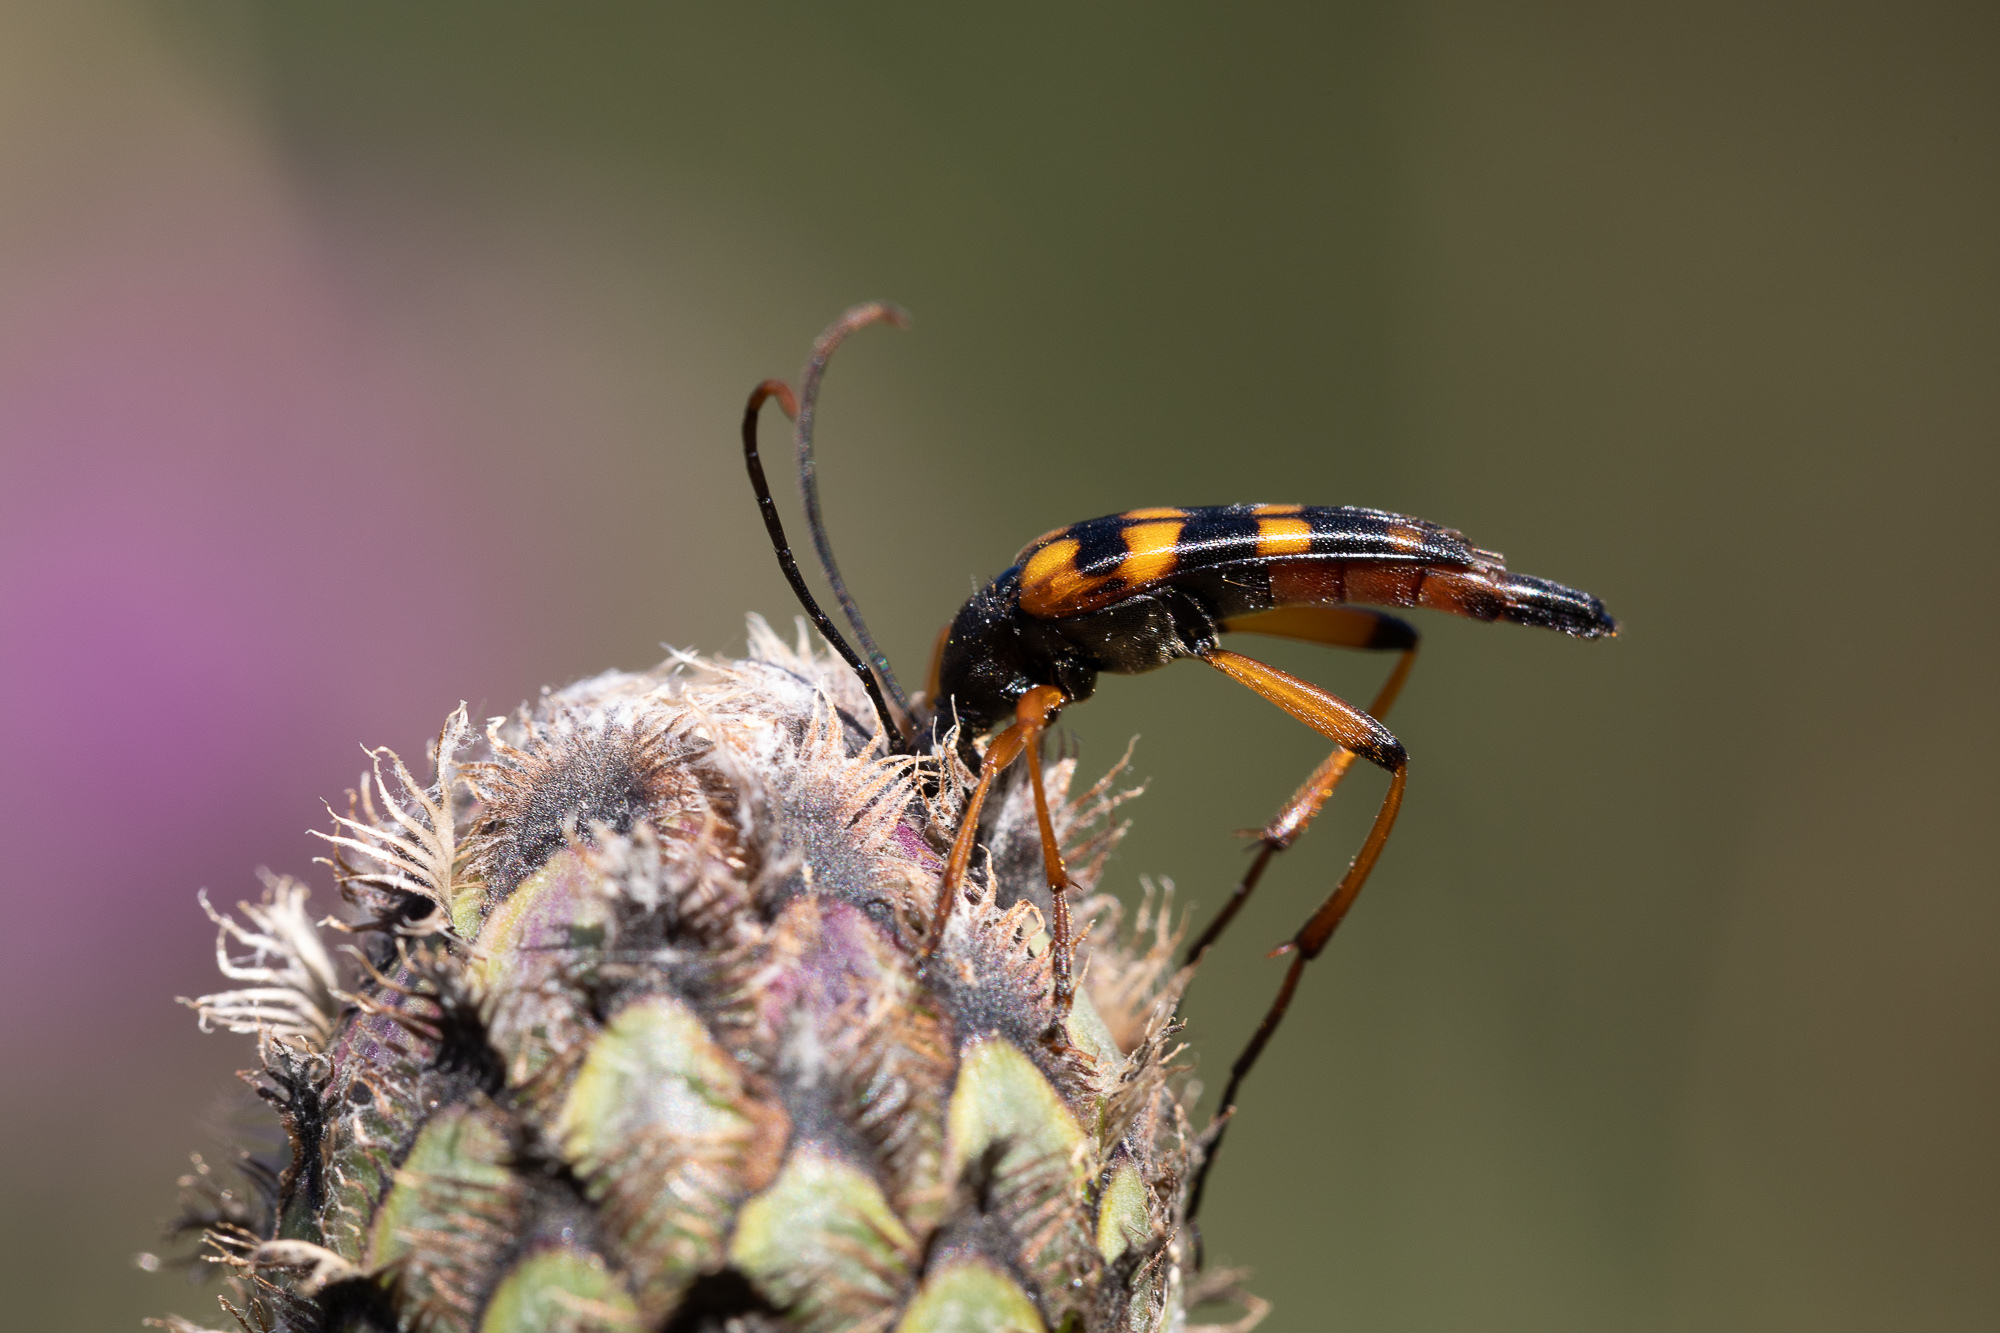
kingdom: Animalia
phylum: Arthropoda
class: Insecta
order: Coleoptera
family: Cerambycidae
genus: Strangalia
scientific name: Strangalia attenuata
